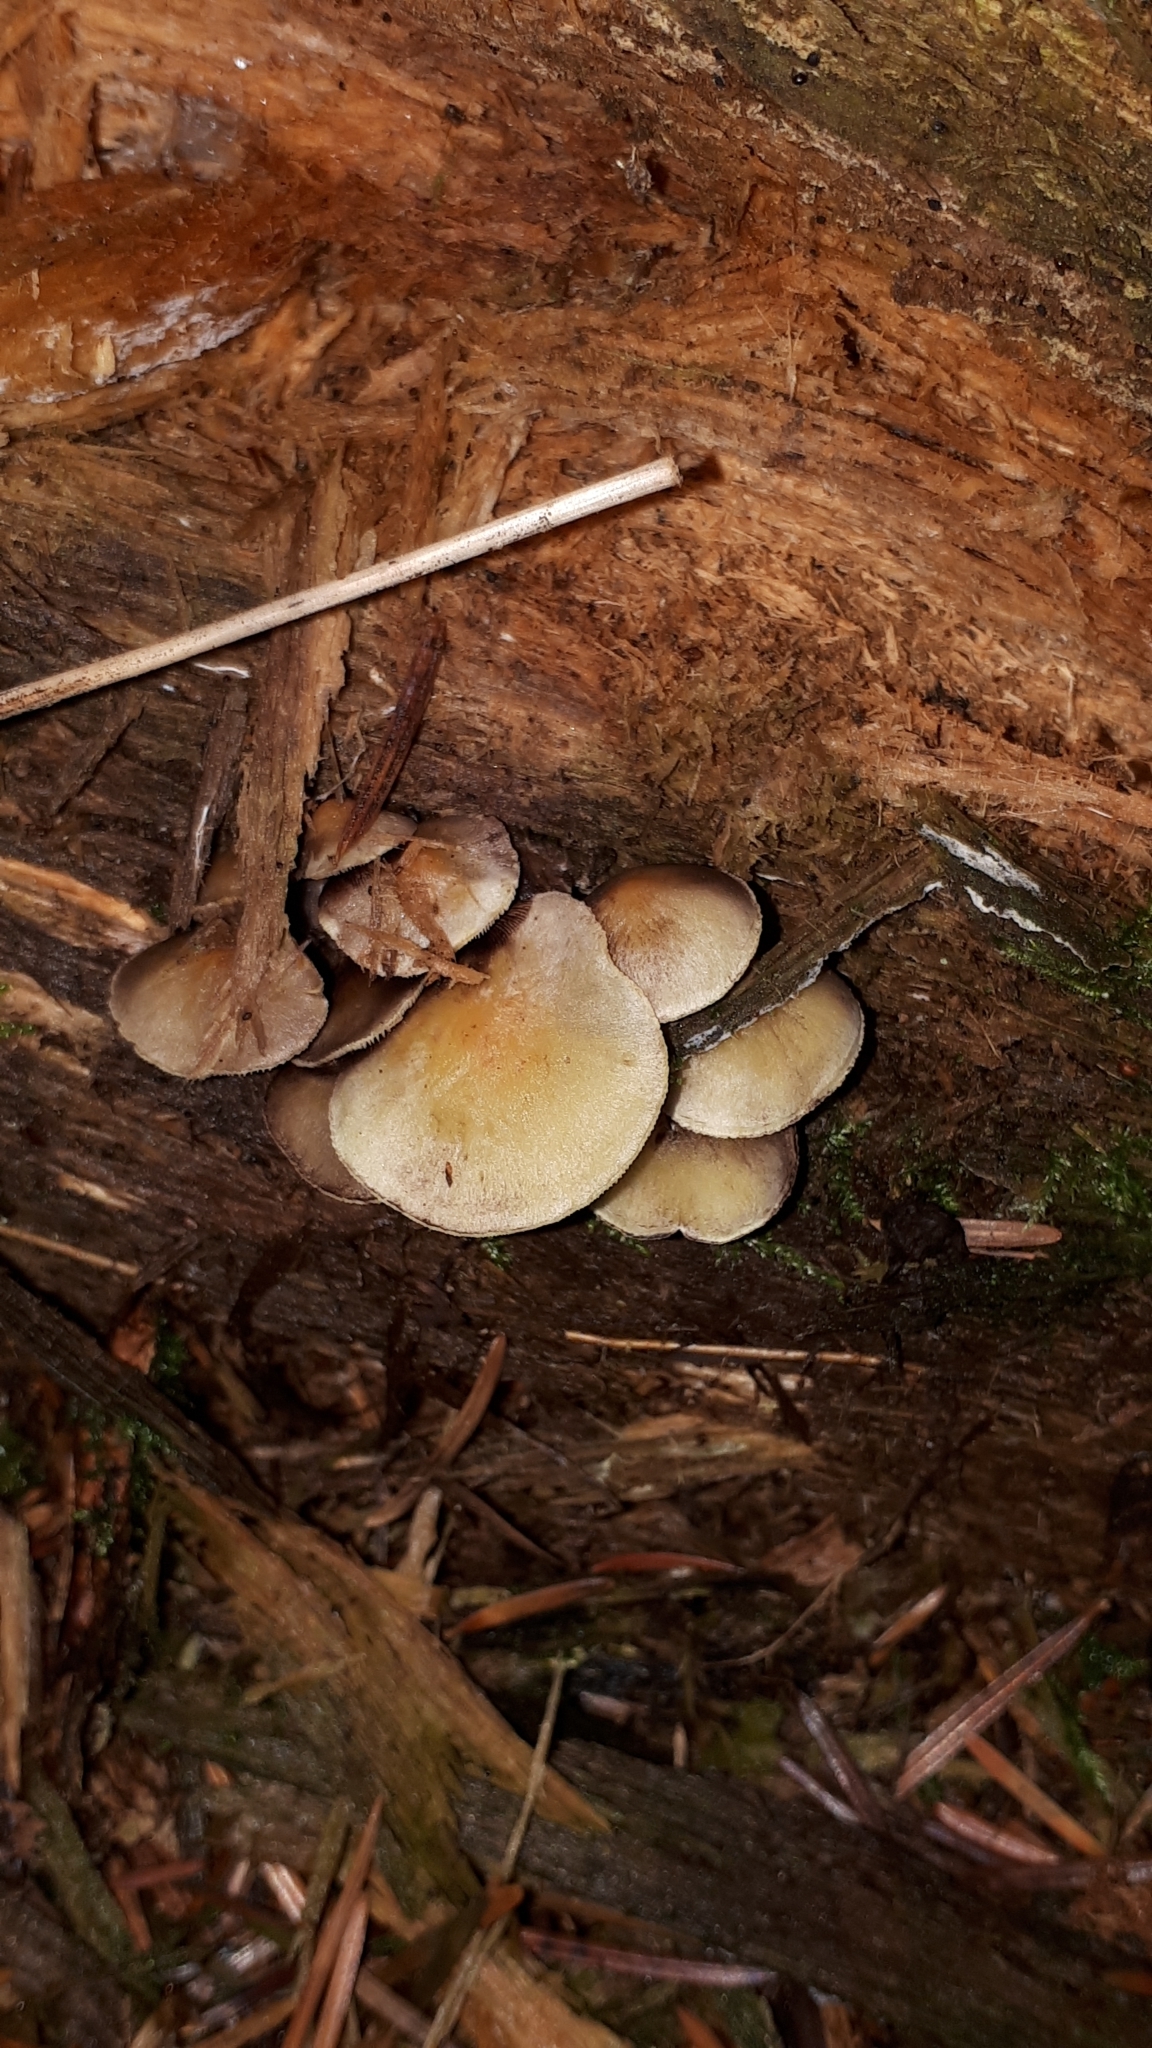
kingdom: Fungi
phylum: Basidiomycota
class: Agaricomycetes
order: Agaricales
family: Strophariaceae
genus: Hypholoma
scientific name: Hypholoma fasciculare
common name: Sulphur tuft
